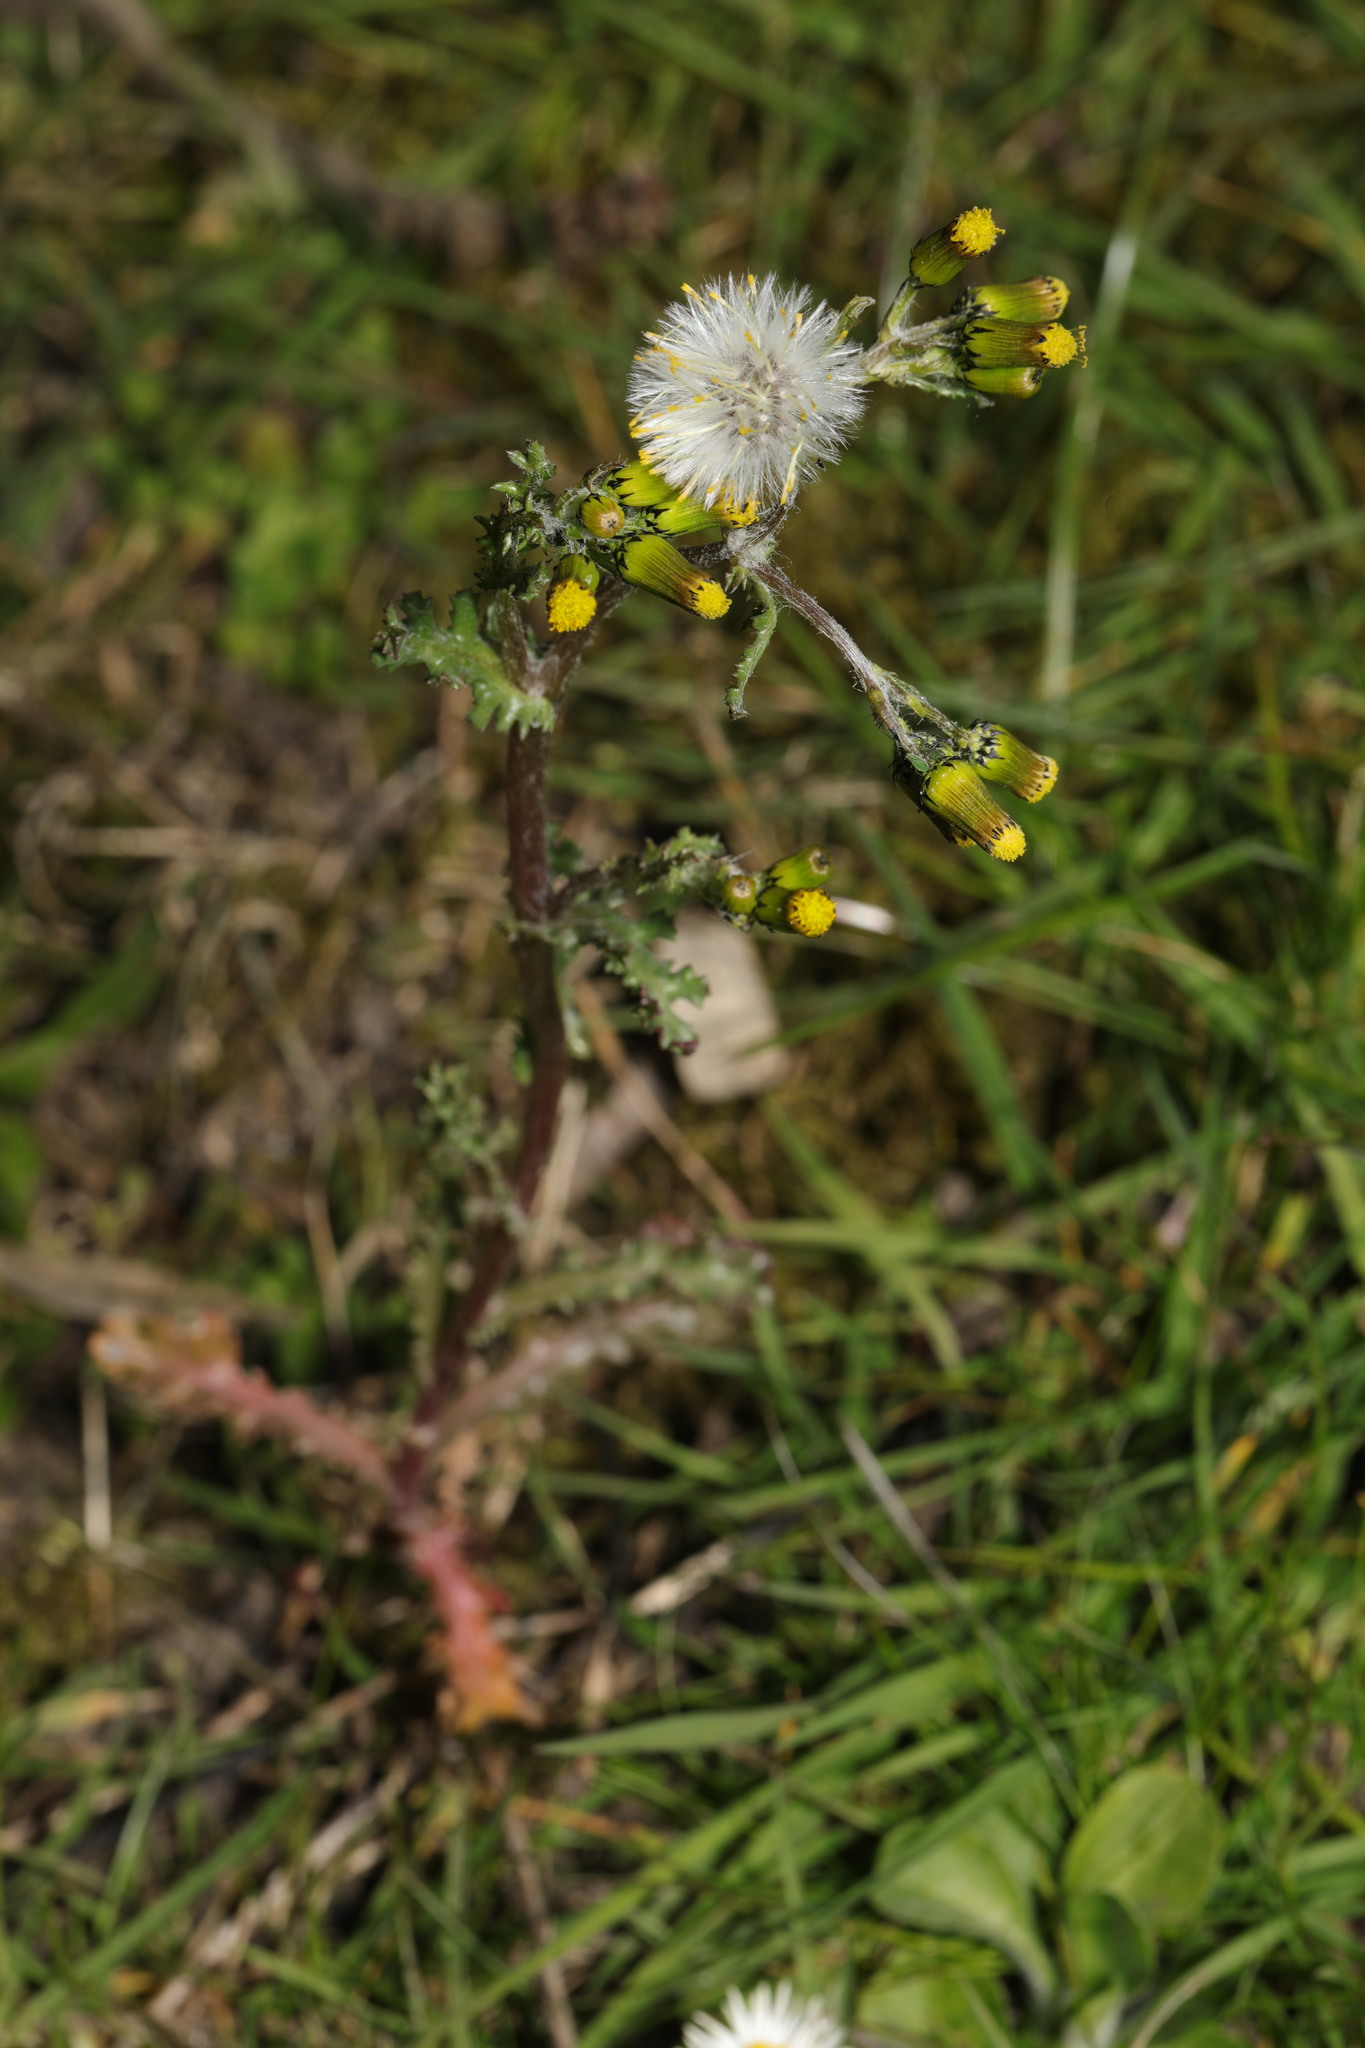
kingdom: Plantae
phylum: Tracheophyta
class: Magnoliopsida
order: Asterales
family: Asteraceae
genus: Senecio
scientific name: Senecio vulgaris
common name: Old-man-in-the-spring
